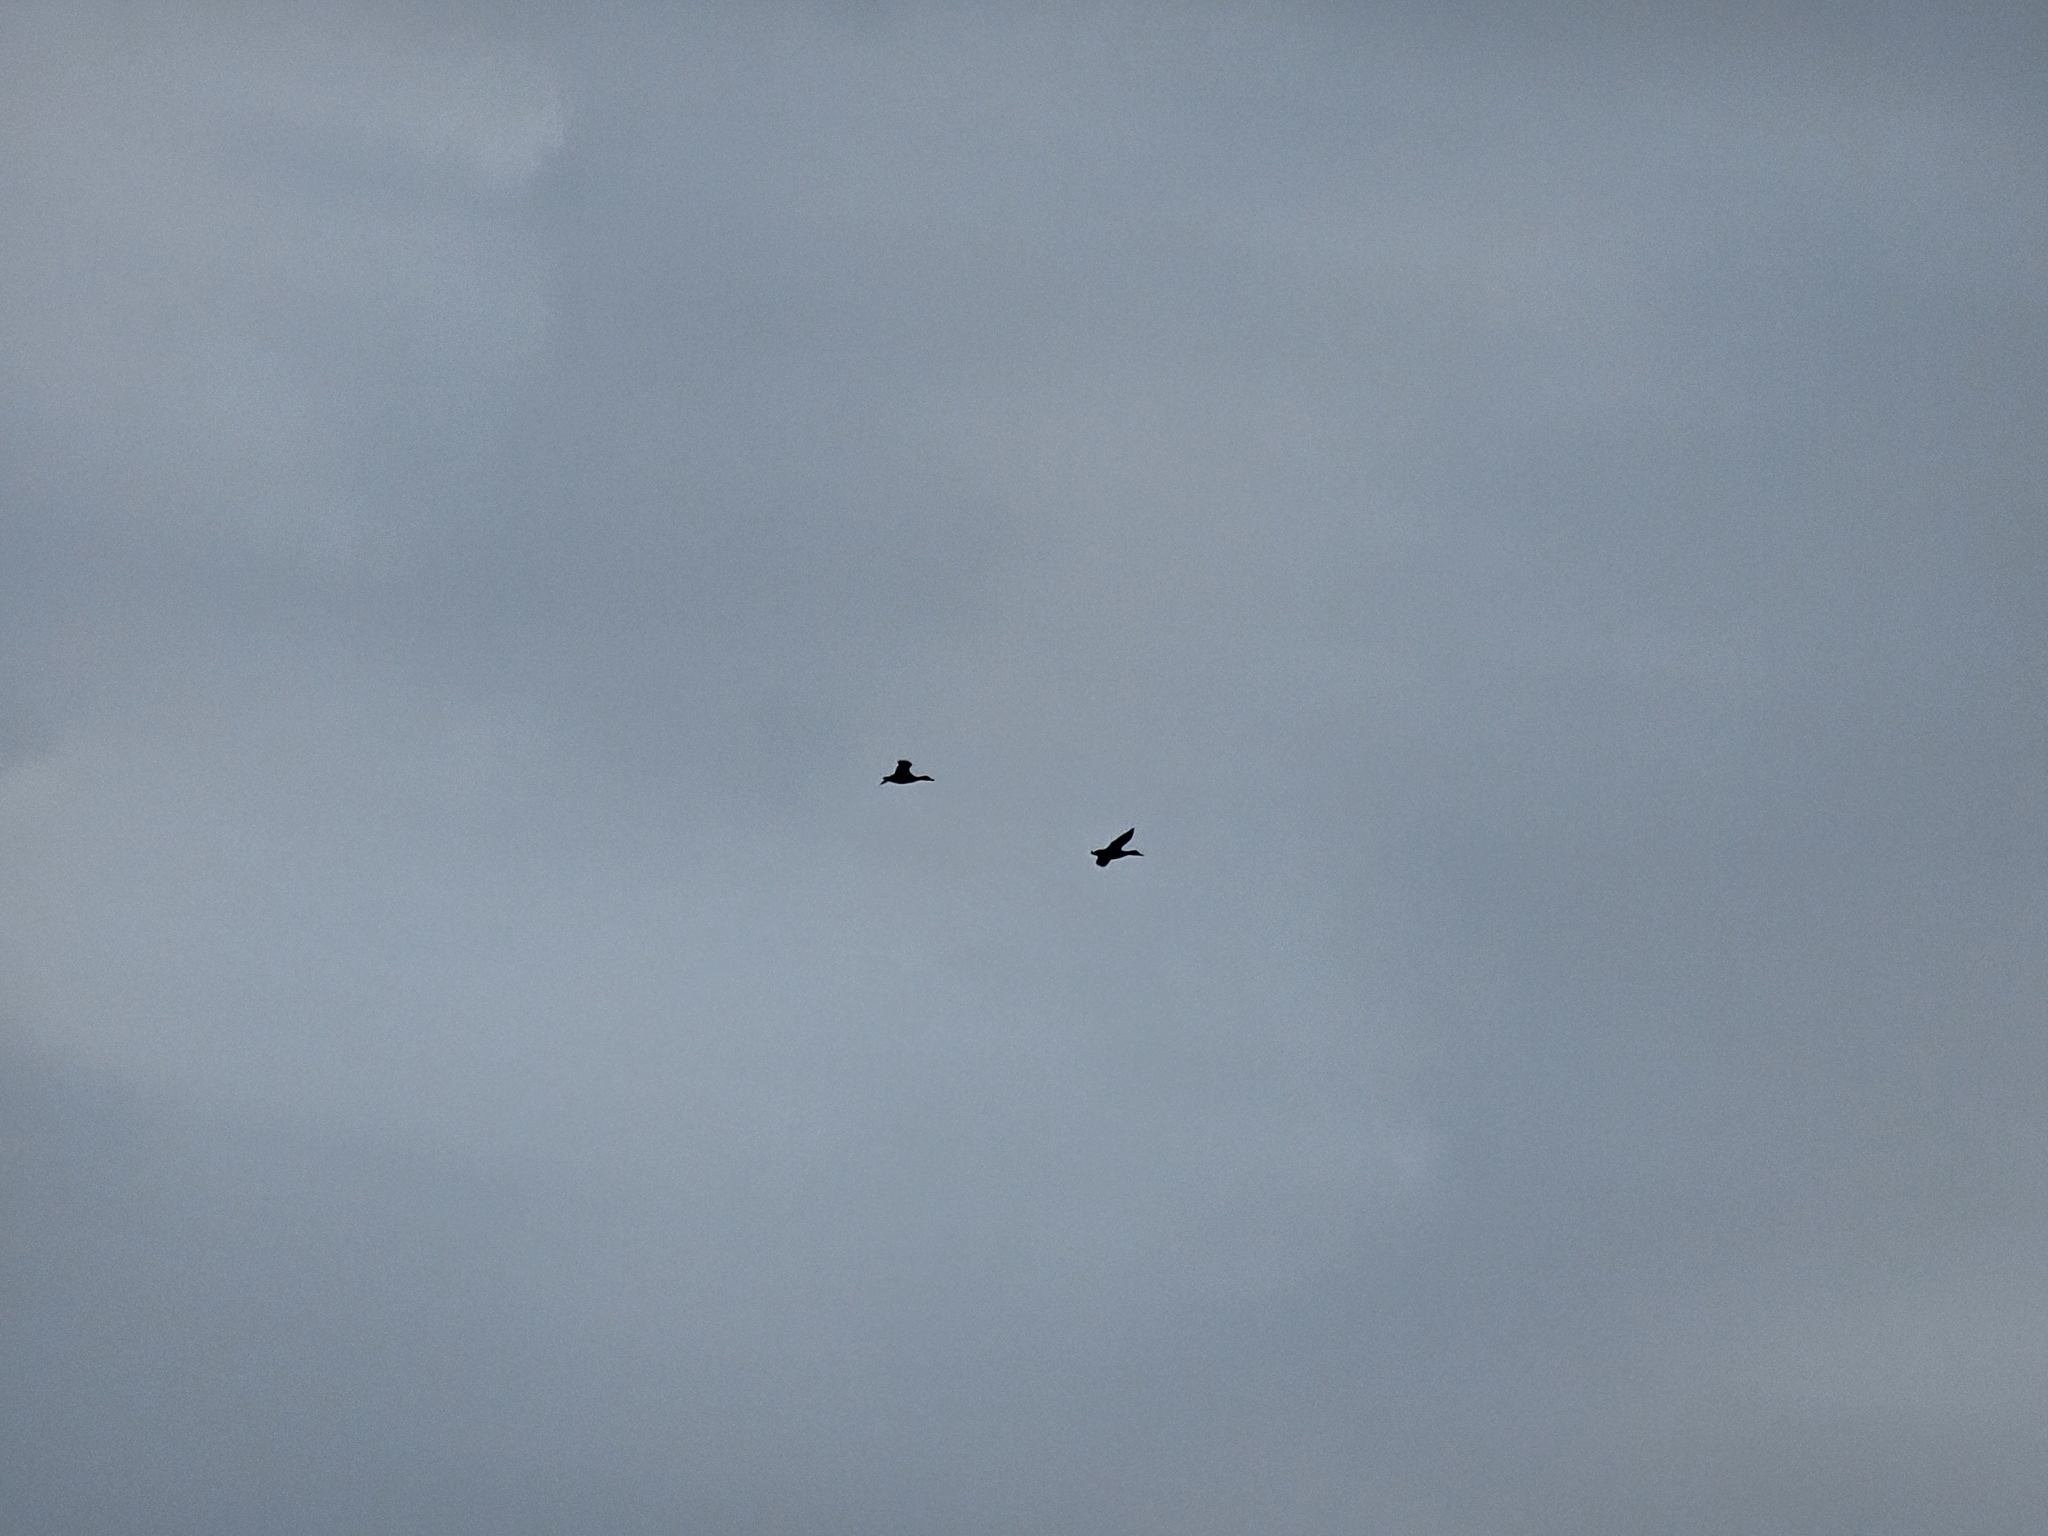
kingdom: Animalia
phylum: Chordata
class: Aves
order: Anseriformes
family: Anatidae
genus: Anas
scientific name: Anas platyrhynchos
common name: Mallard
